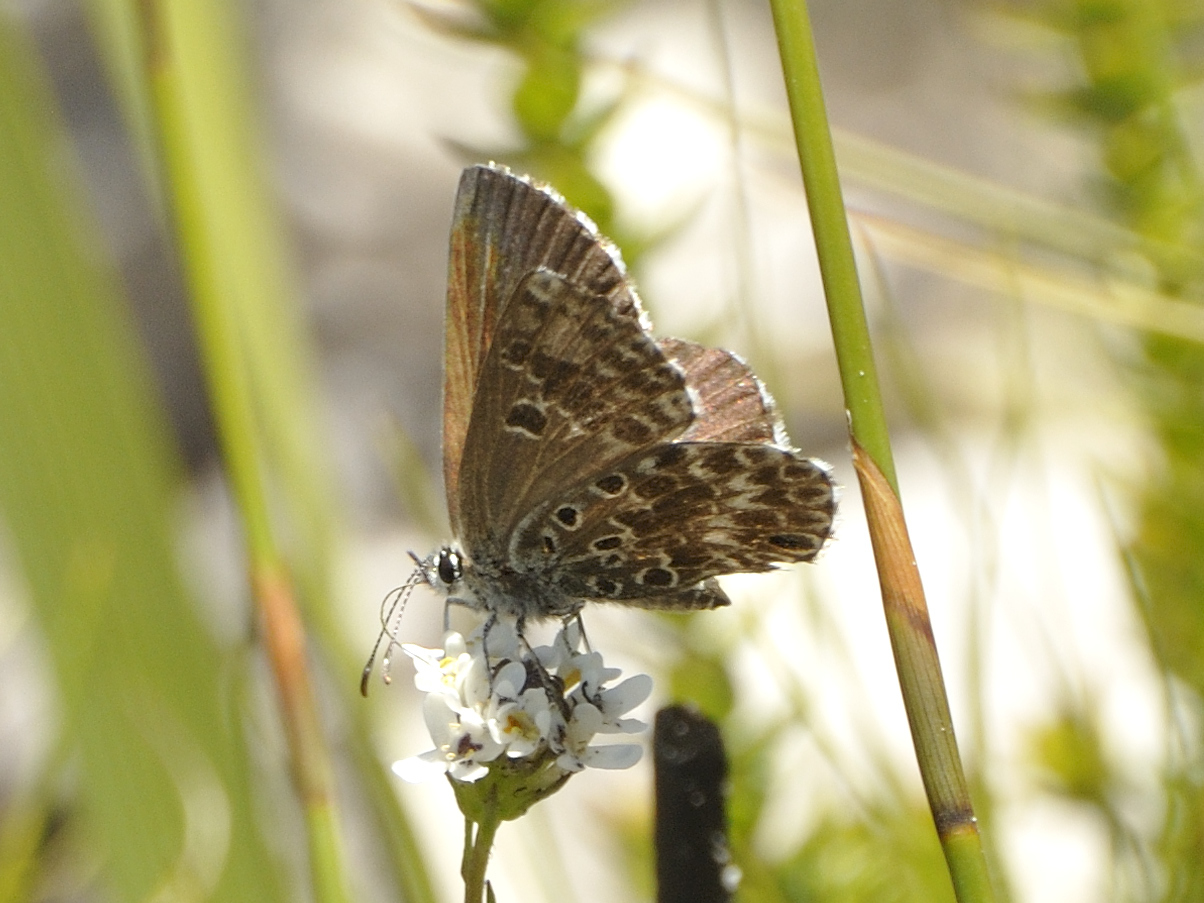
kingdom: Animalia
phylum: Arthropoda
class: Insecta
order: Lepidoptera
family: Lycaenidae
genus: Lepidochrysops
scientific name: Lepidochrysops methymna
